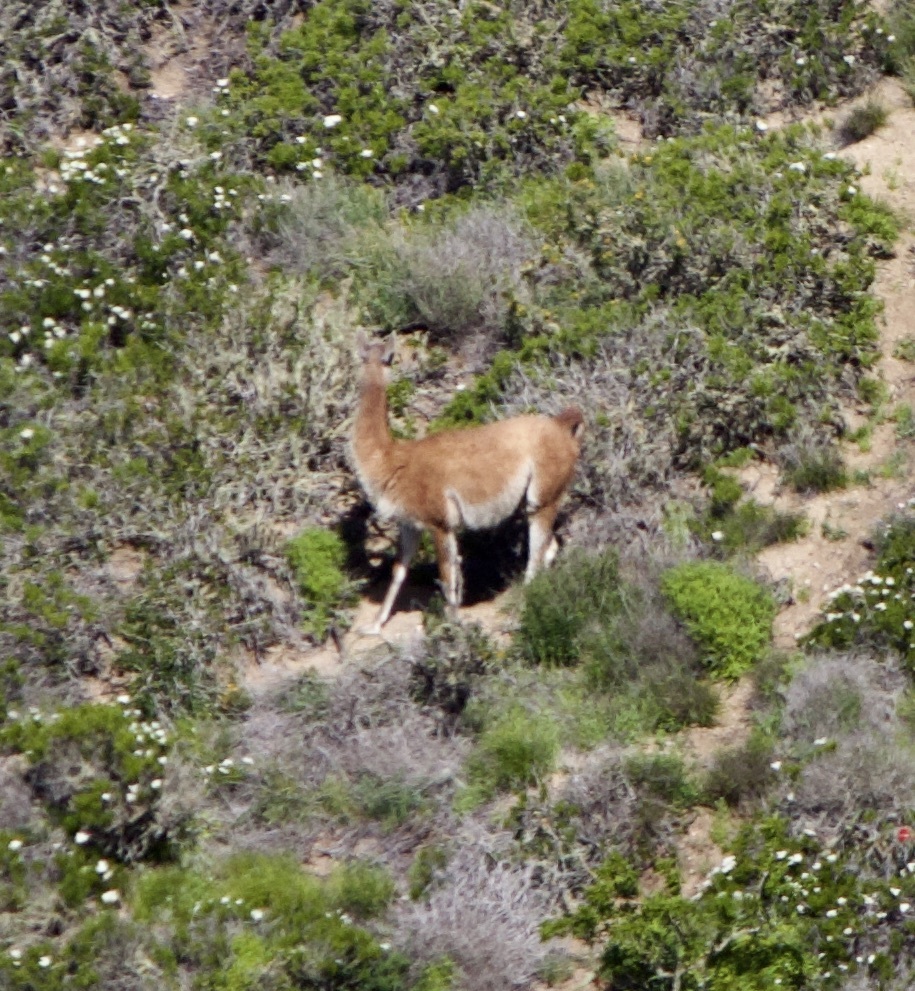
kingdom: Animalia
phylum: Chordata
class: Mammalia
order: Artiodactyla
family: Camelidae
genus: Lama
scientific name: Lama glama
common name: Llama
